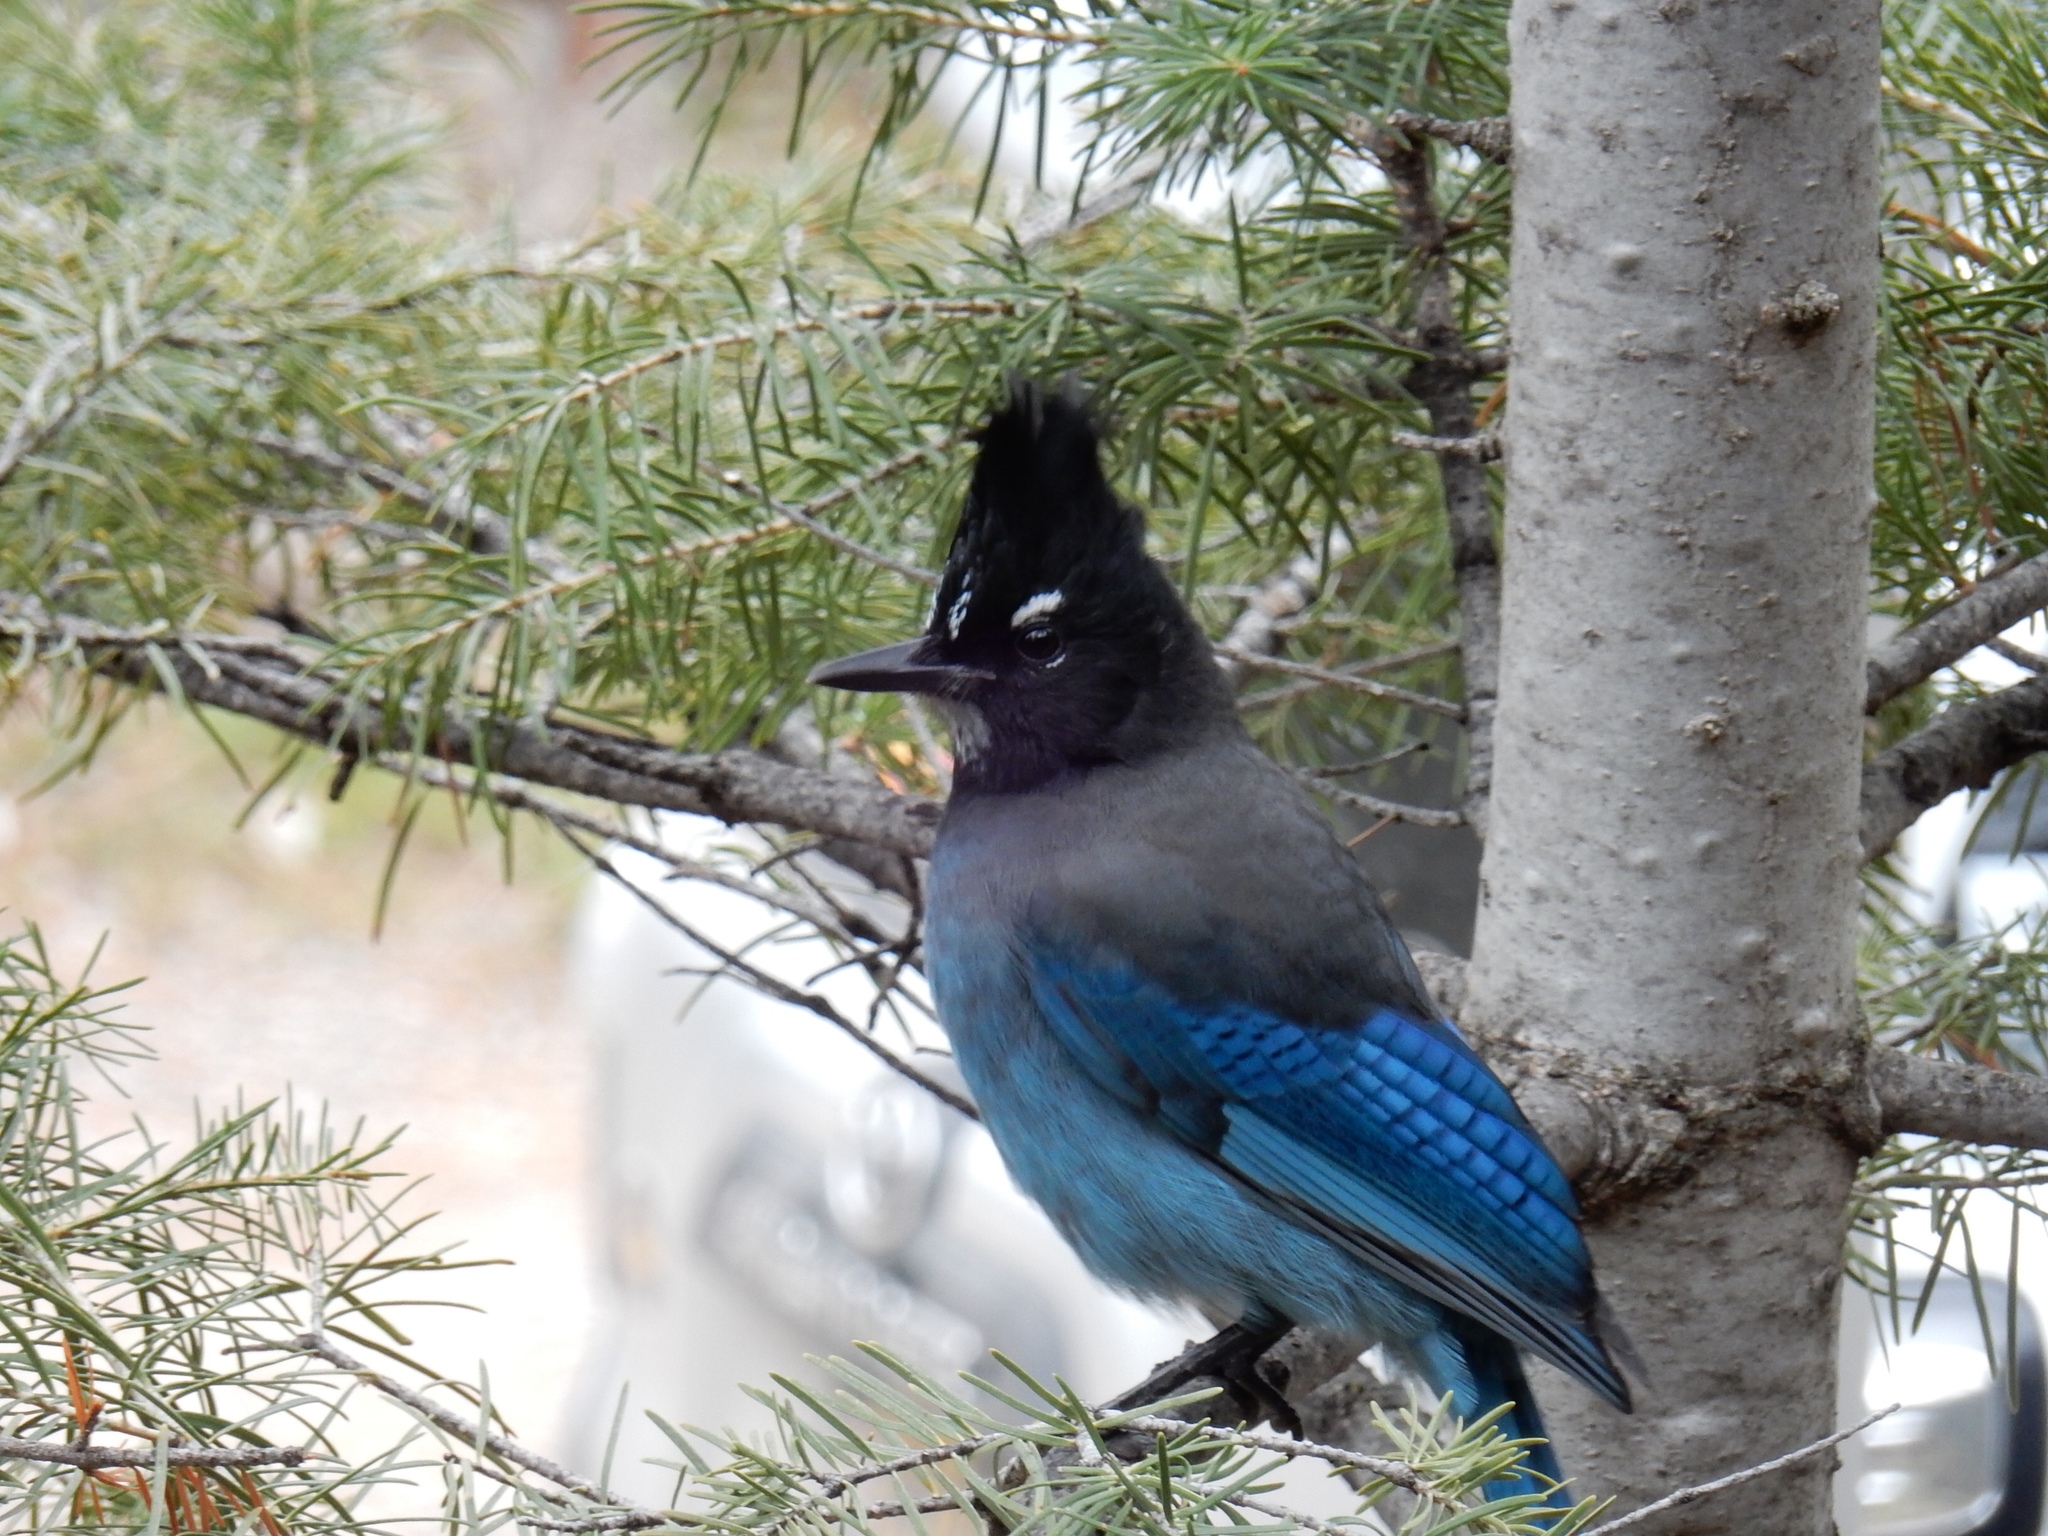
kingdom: Animalia
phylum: Chordata
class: Aves
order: Passeriformes
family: Corvidae
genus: Cyanocitta
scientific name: Cyanocitta stelleri
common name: Steller's jay
